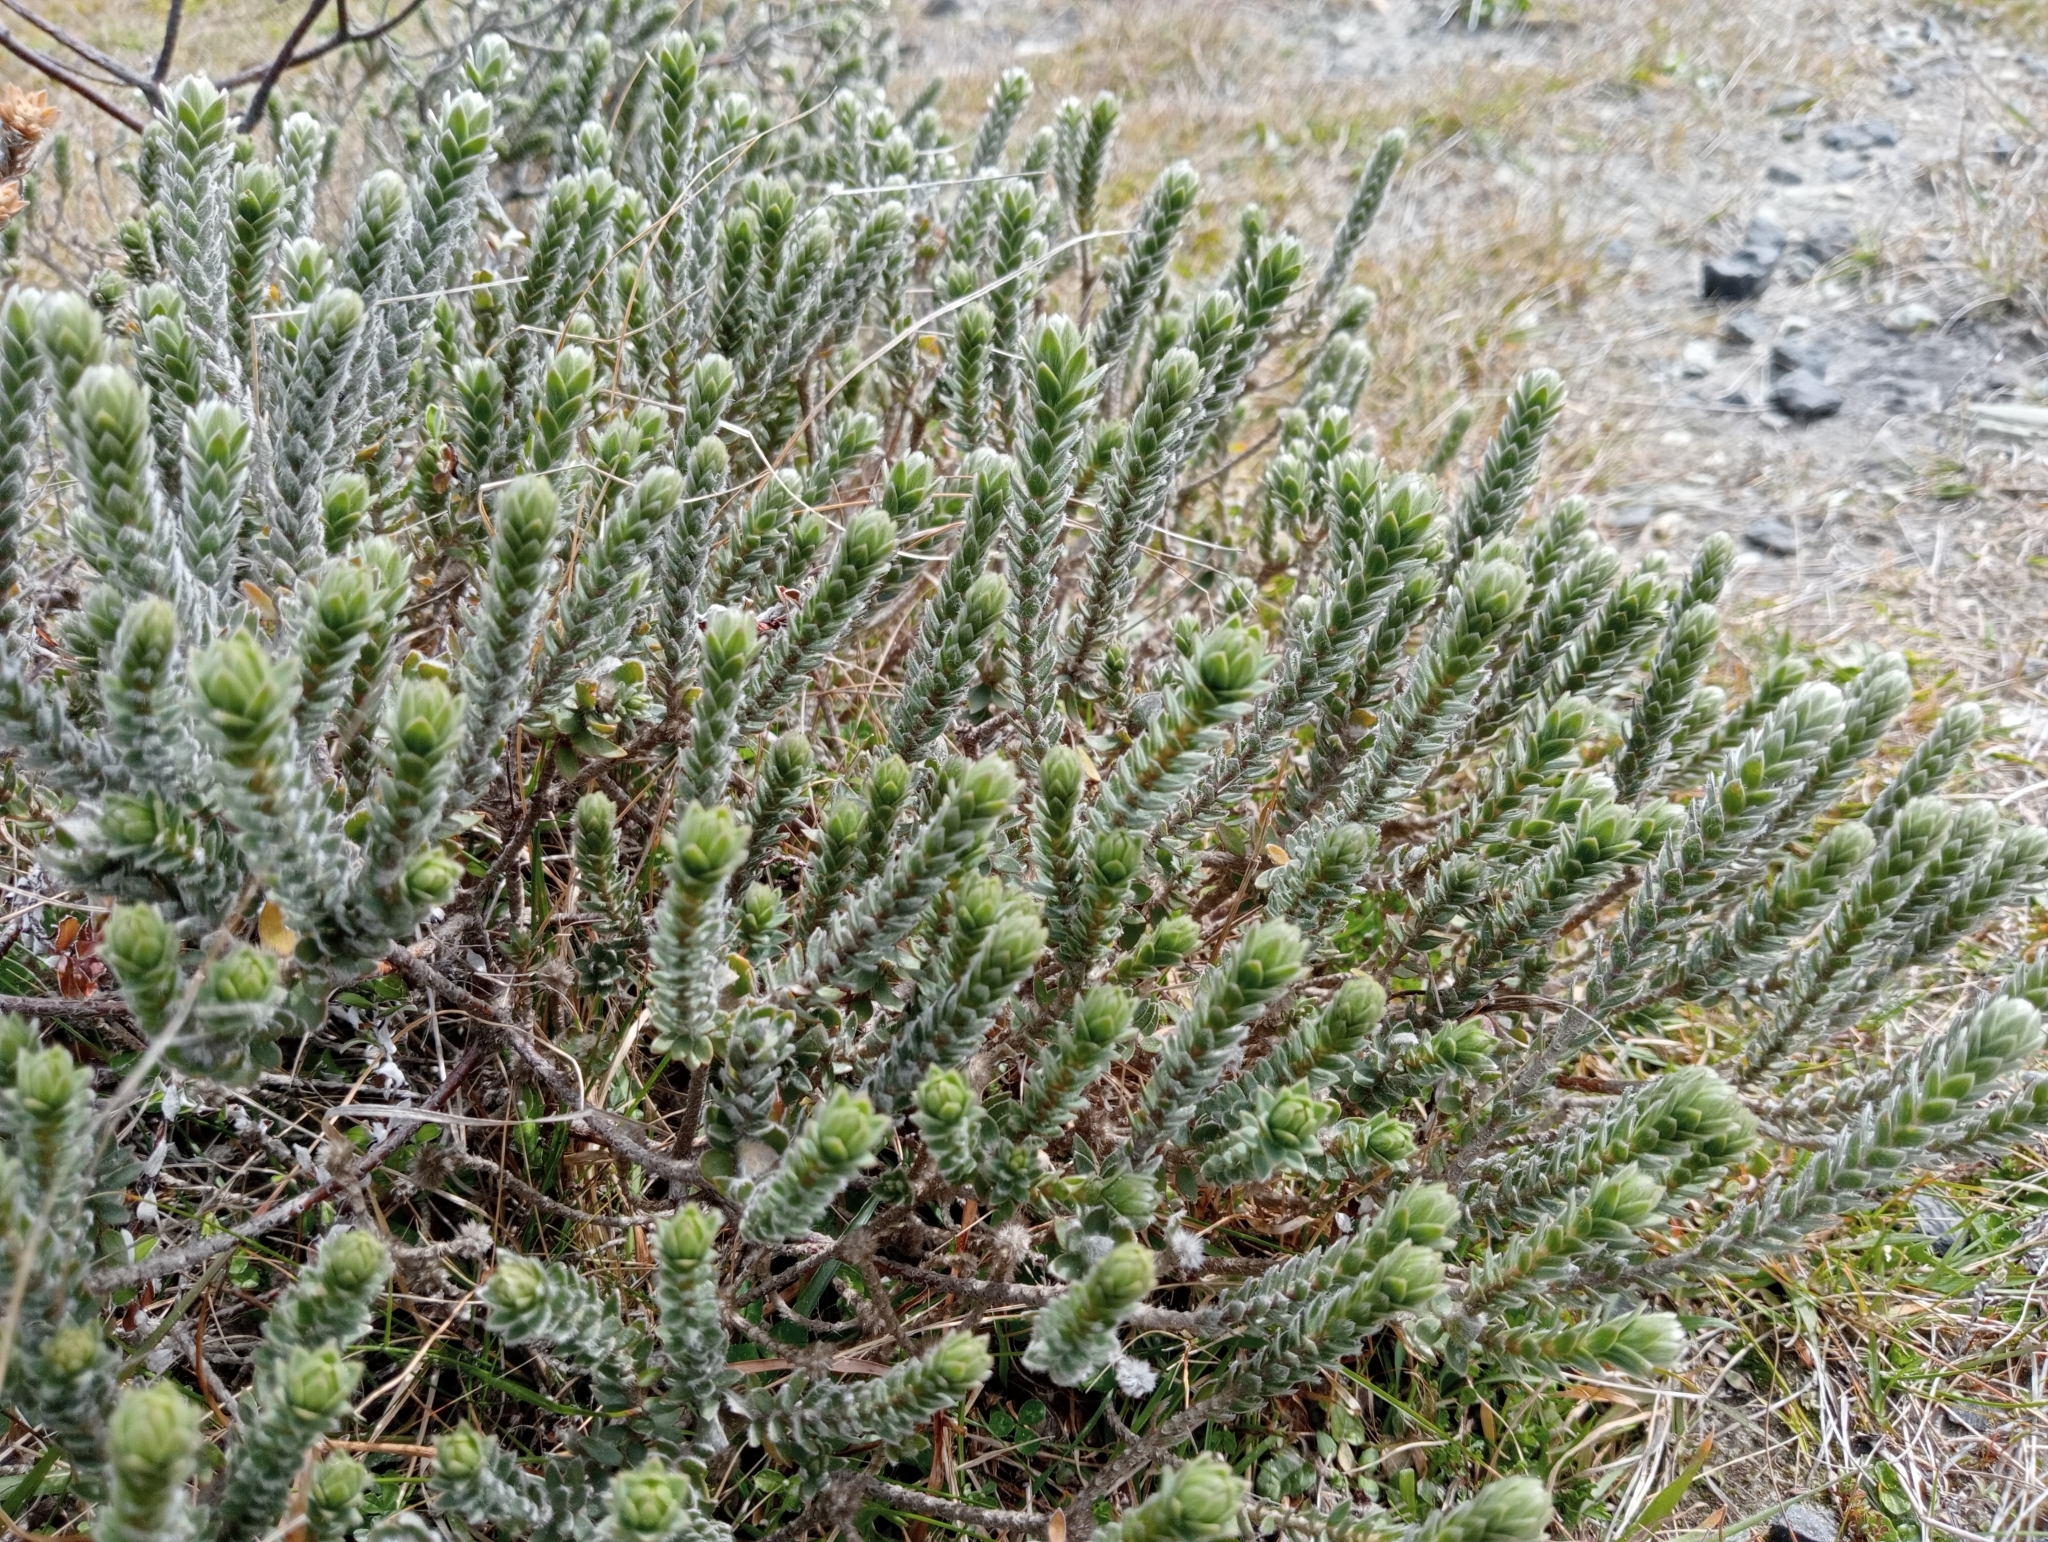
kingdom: Plantae
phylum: Tracheophyta
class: Magnoliopsida
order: Malvales
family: Thymelaeaceae
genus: Pimelea
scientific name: Pimelea villosa
